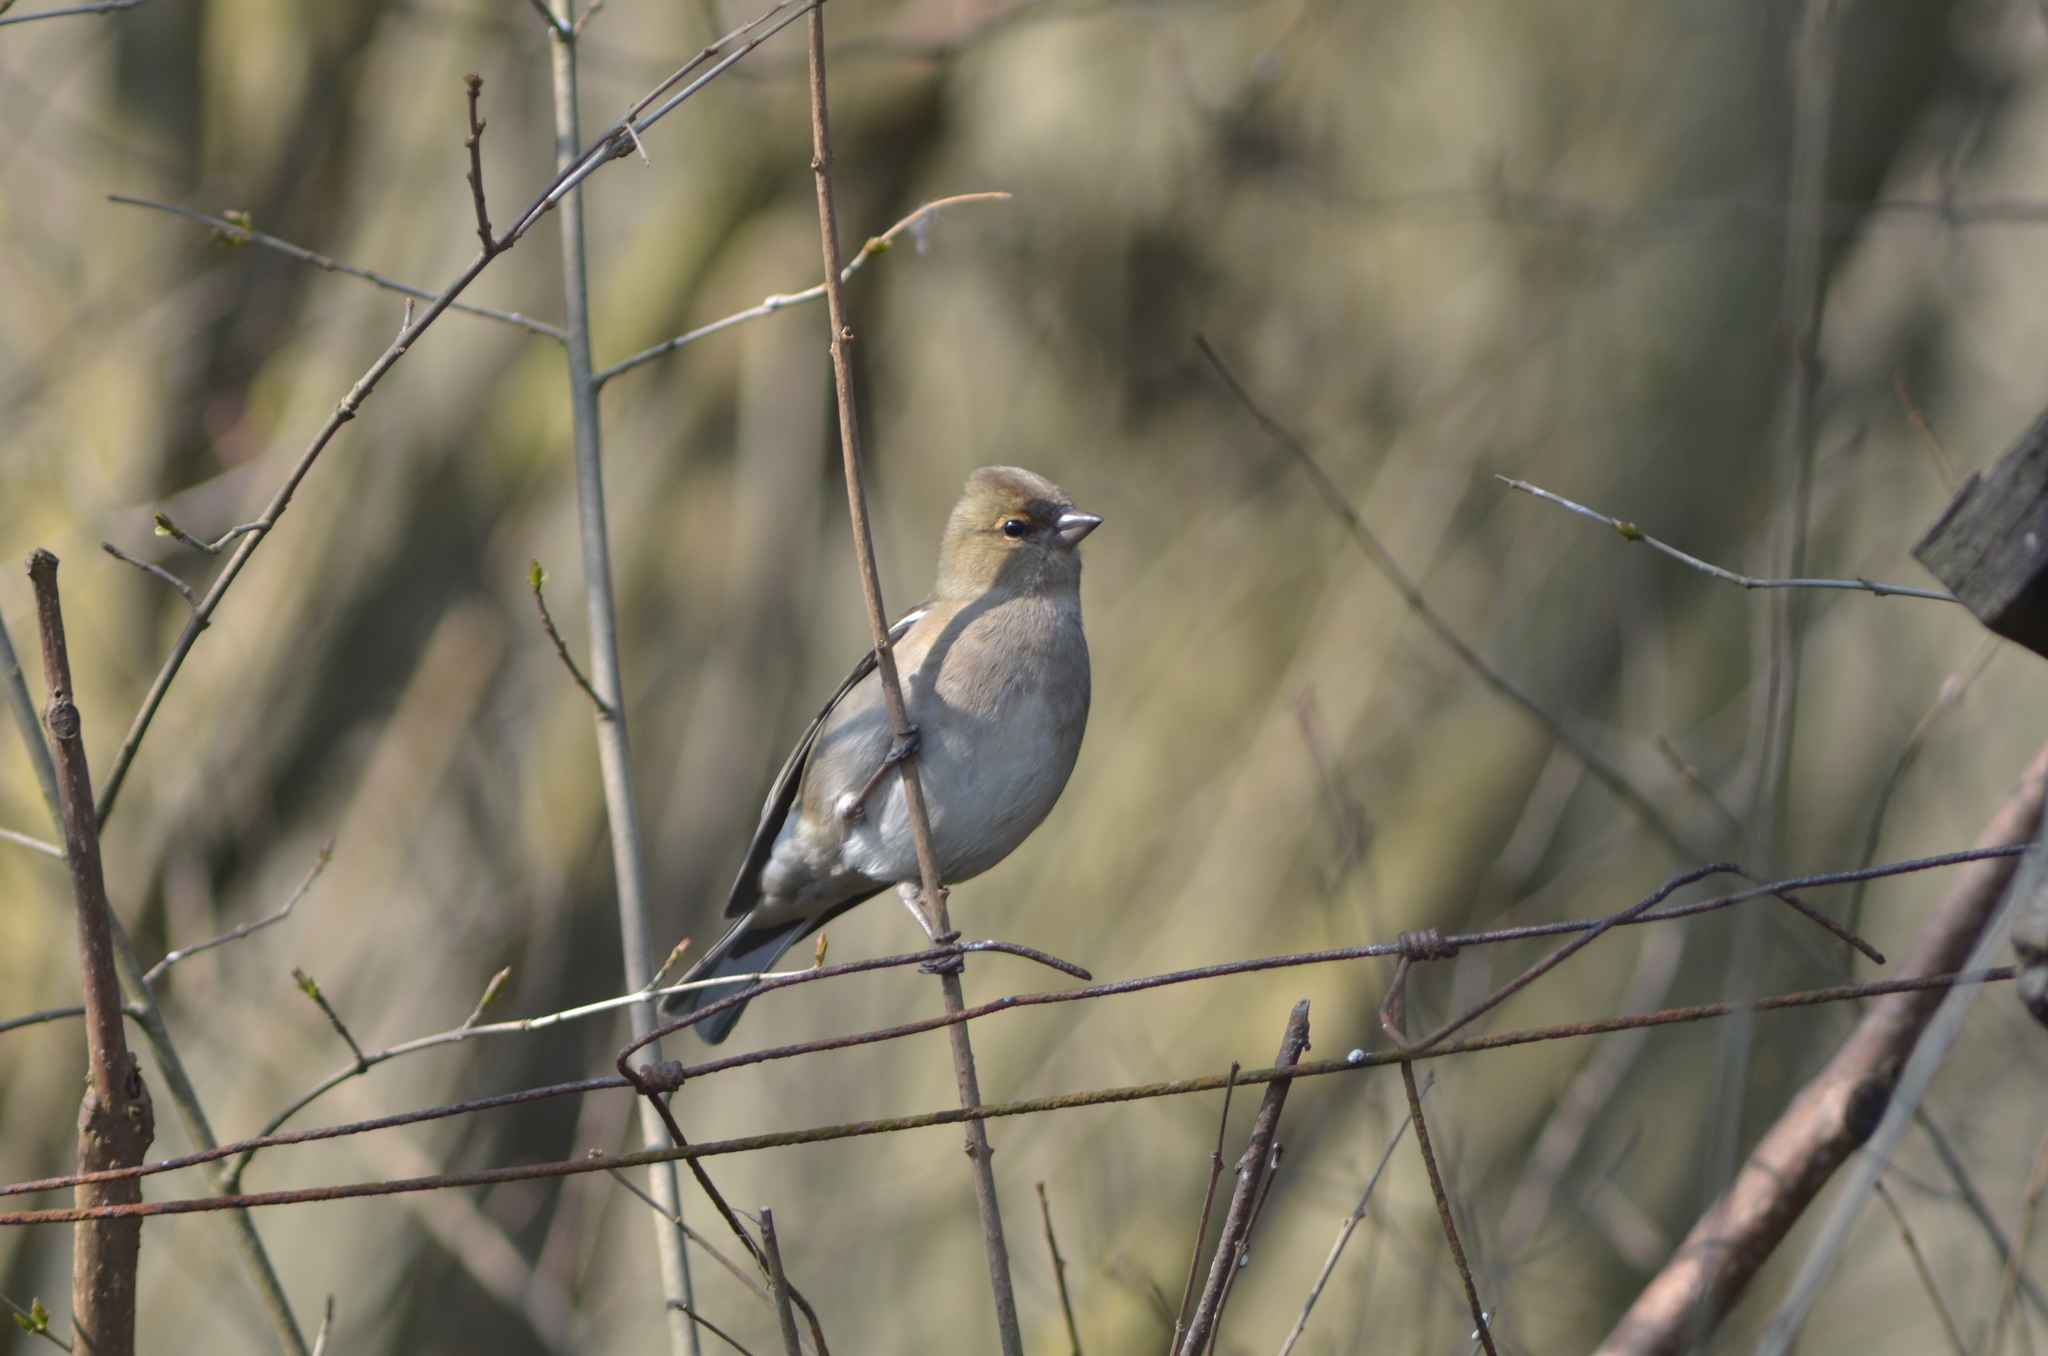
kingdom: Animalia
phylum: Chordata
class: Aves
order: Passeriformes
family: Fringillidae
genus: Fringilla
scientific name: Fringilla coelebs
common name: Common chaffinch
